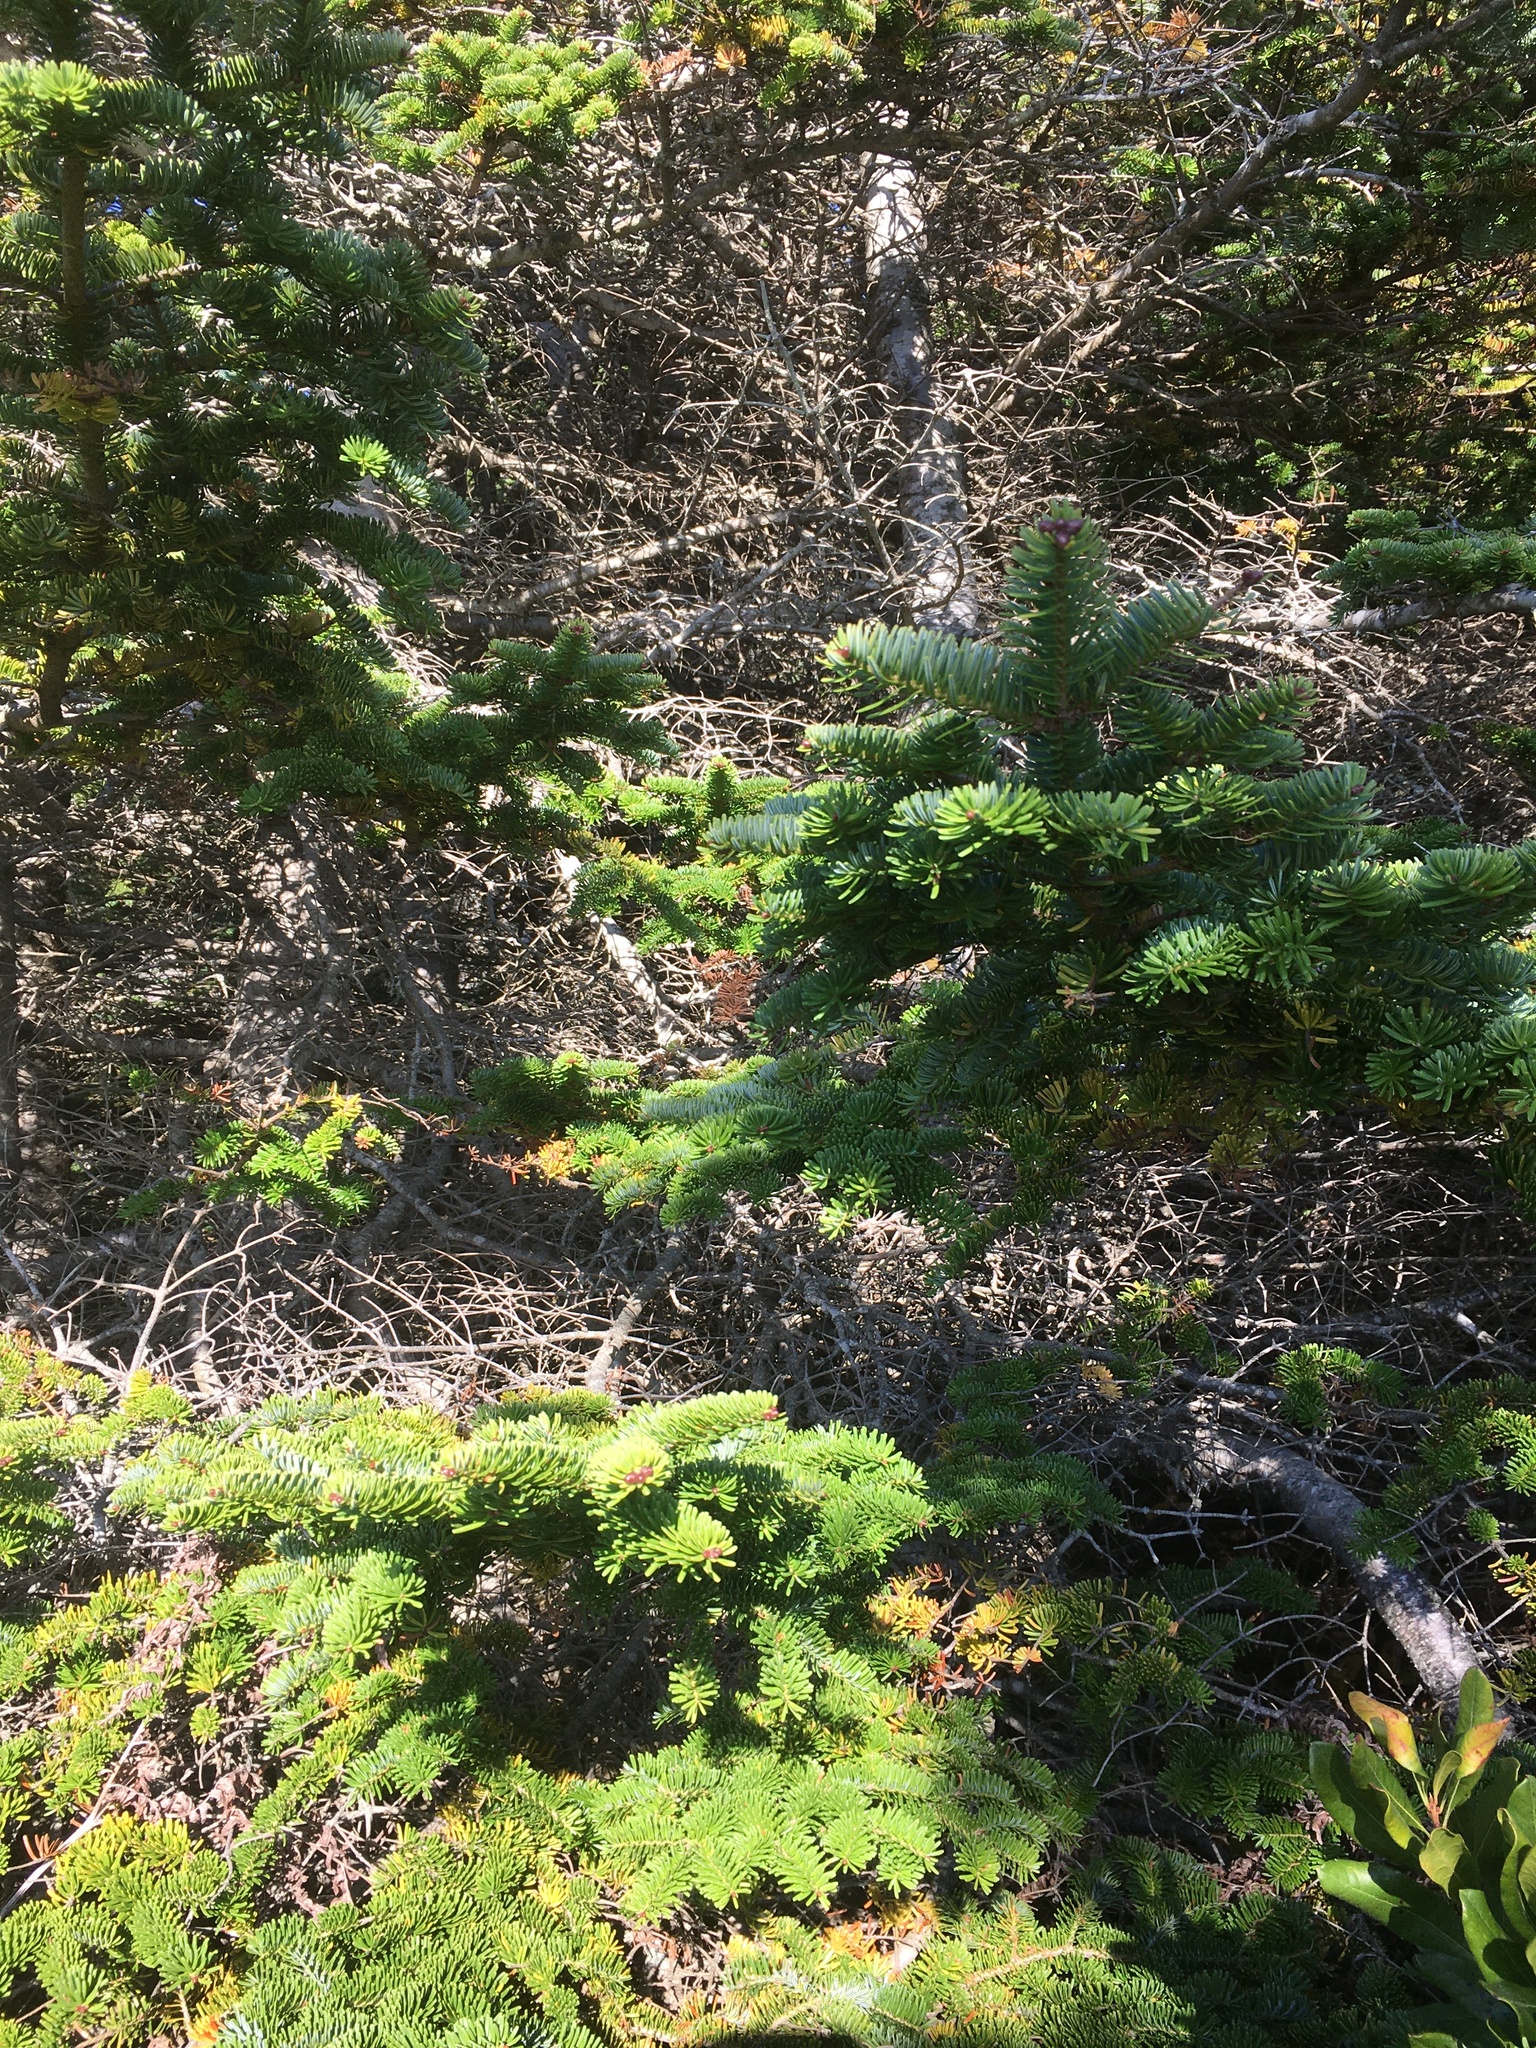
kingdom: Plantae
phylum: Tracheophyta
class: Pinopsida
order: Pinales
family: Pinaceae
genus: Abies
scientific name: Abies balsamea
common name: Balsam fir
